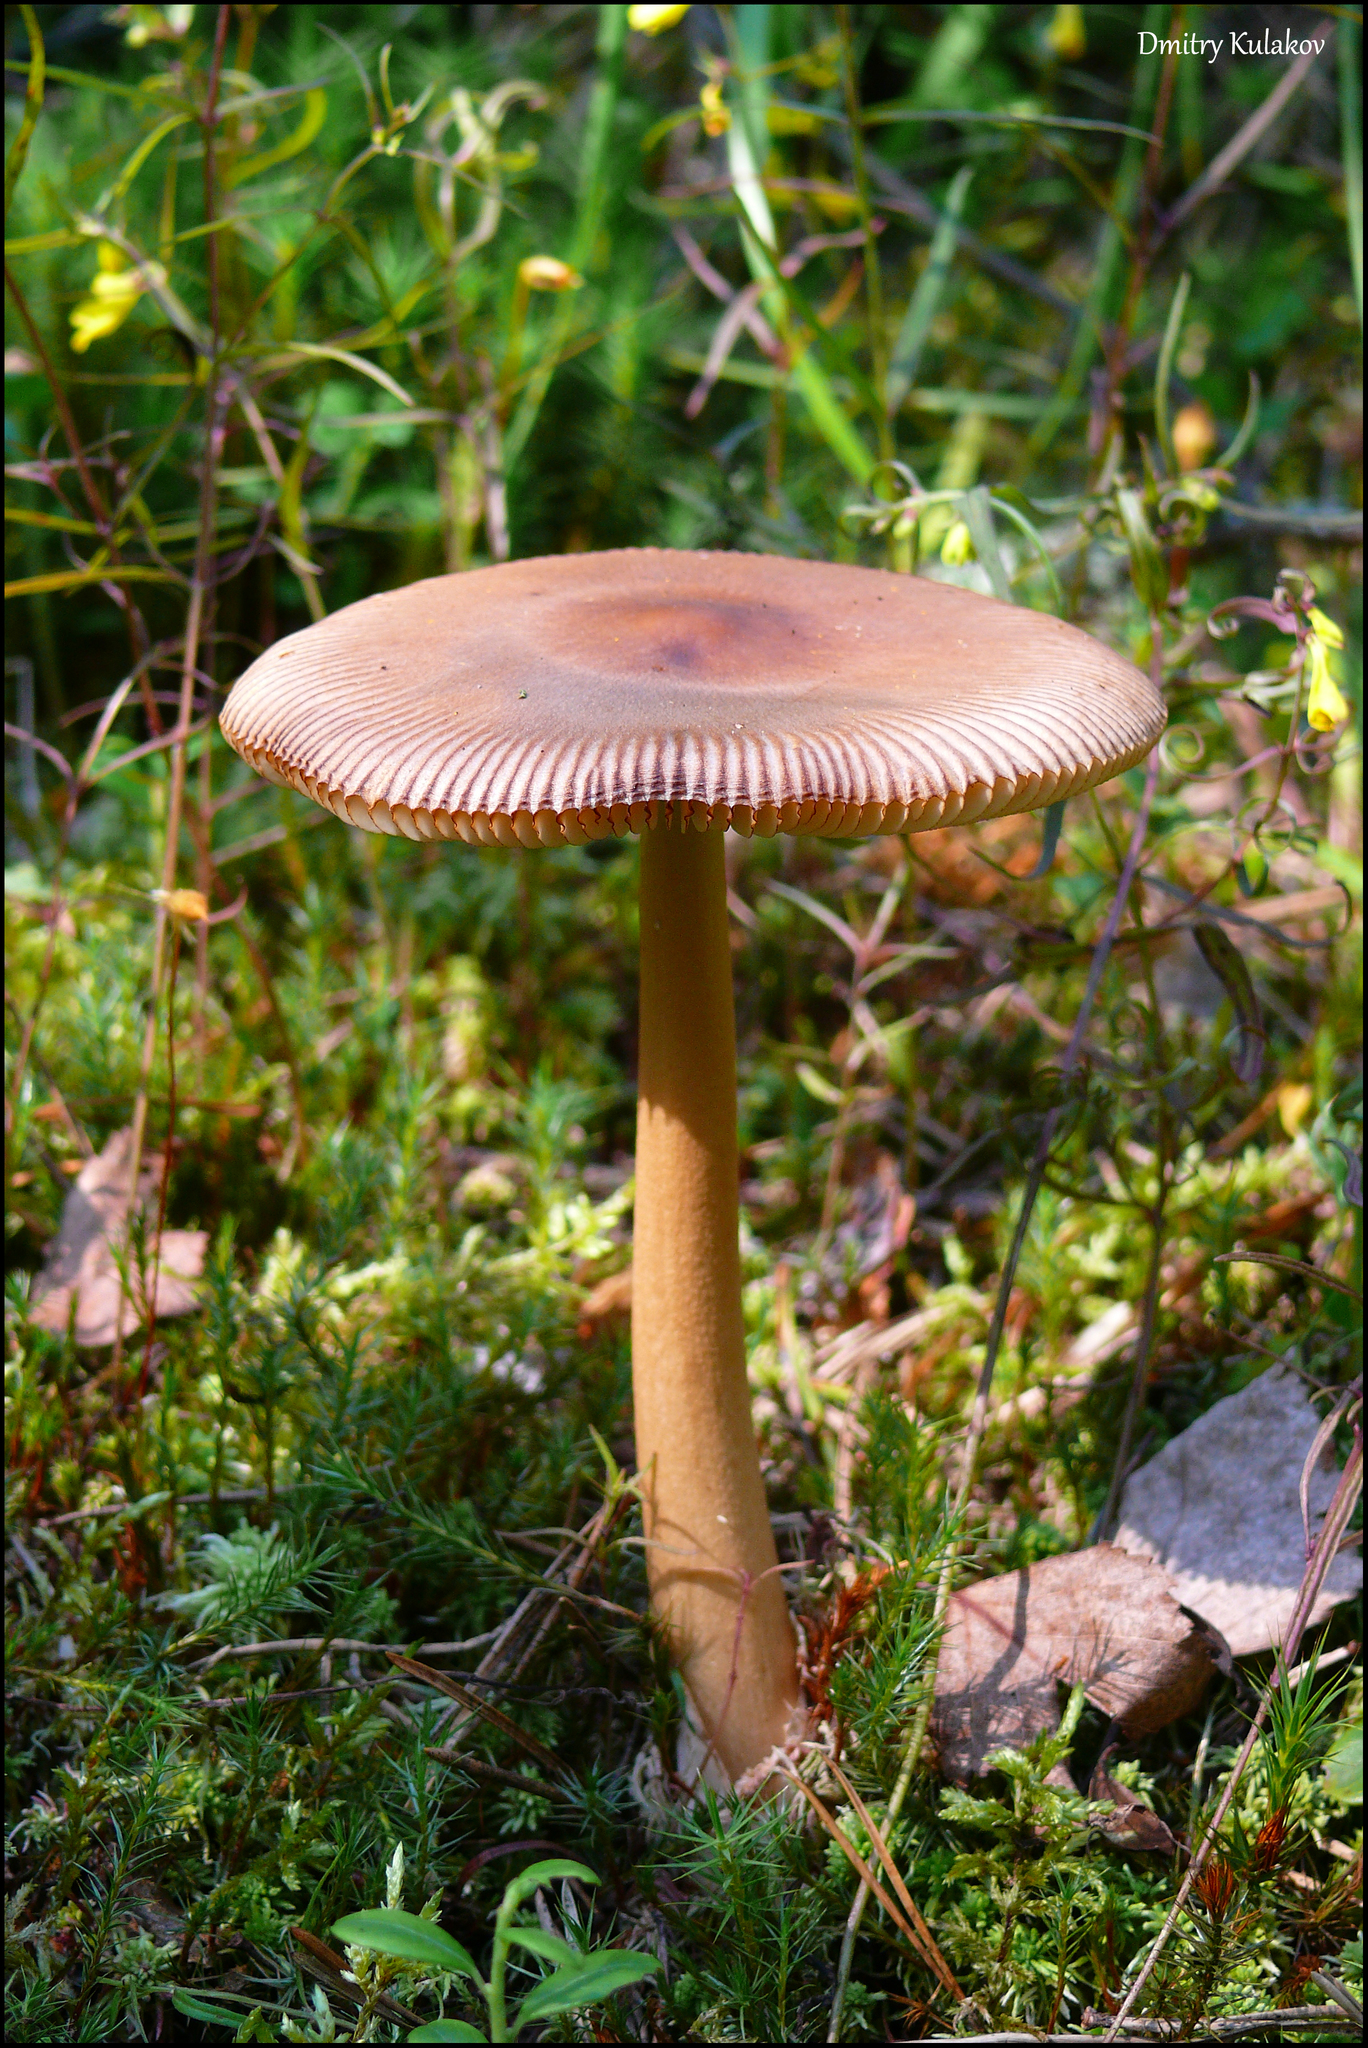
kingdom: Fungi
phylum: Basidiomycota
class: Agaricomycetes
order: Agaricales
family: Amanitaceae
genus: Amanita
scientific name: Amanita fulva
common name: Tawny grisette
